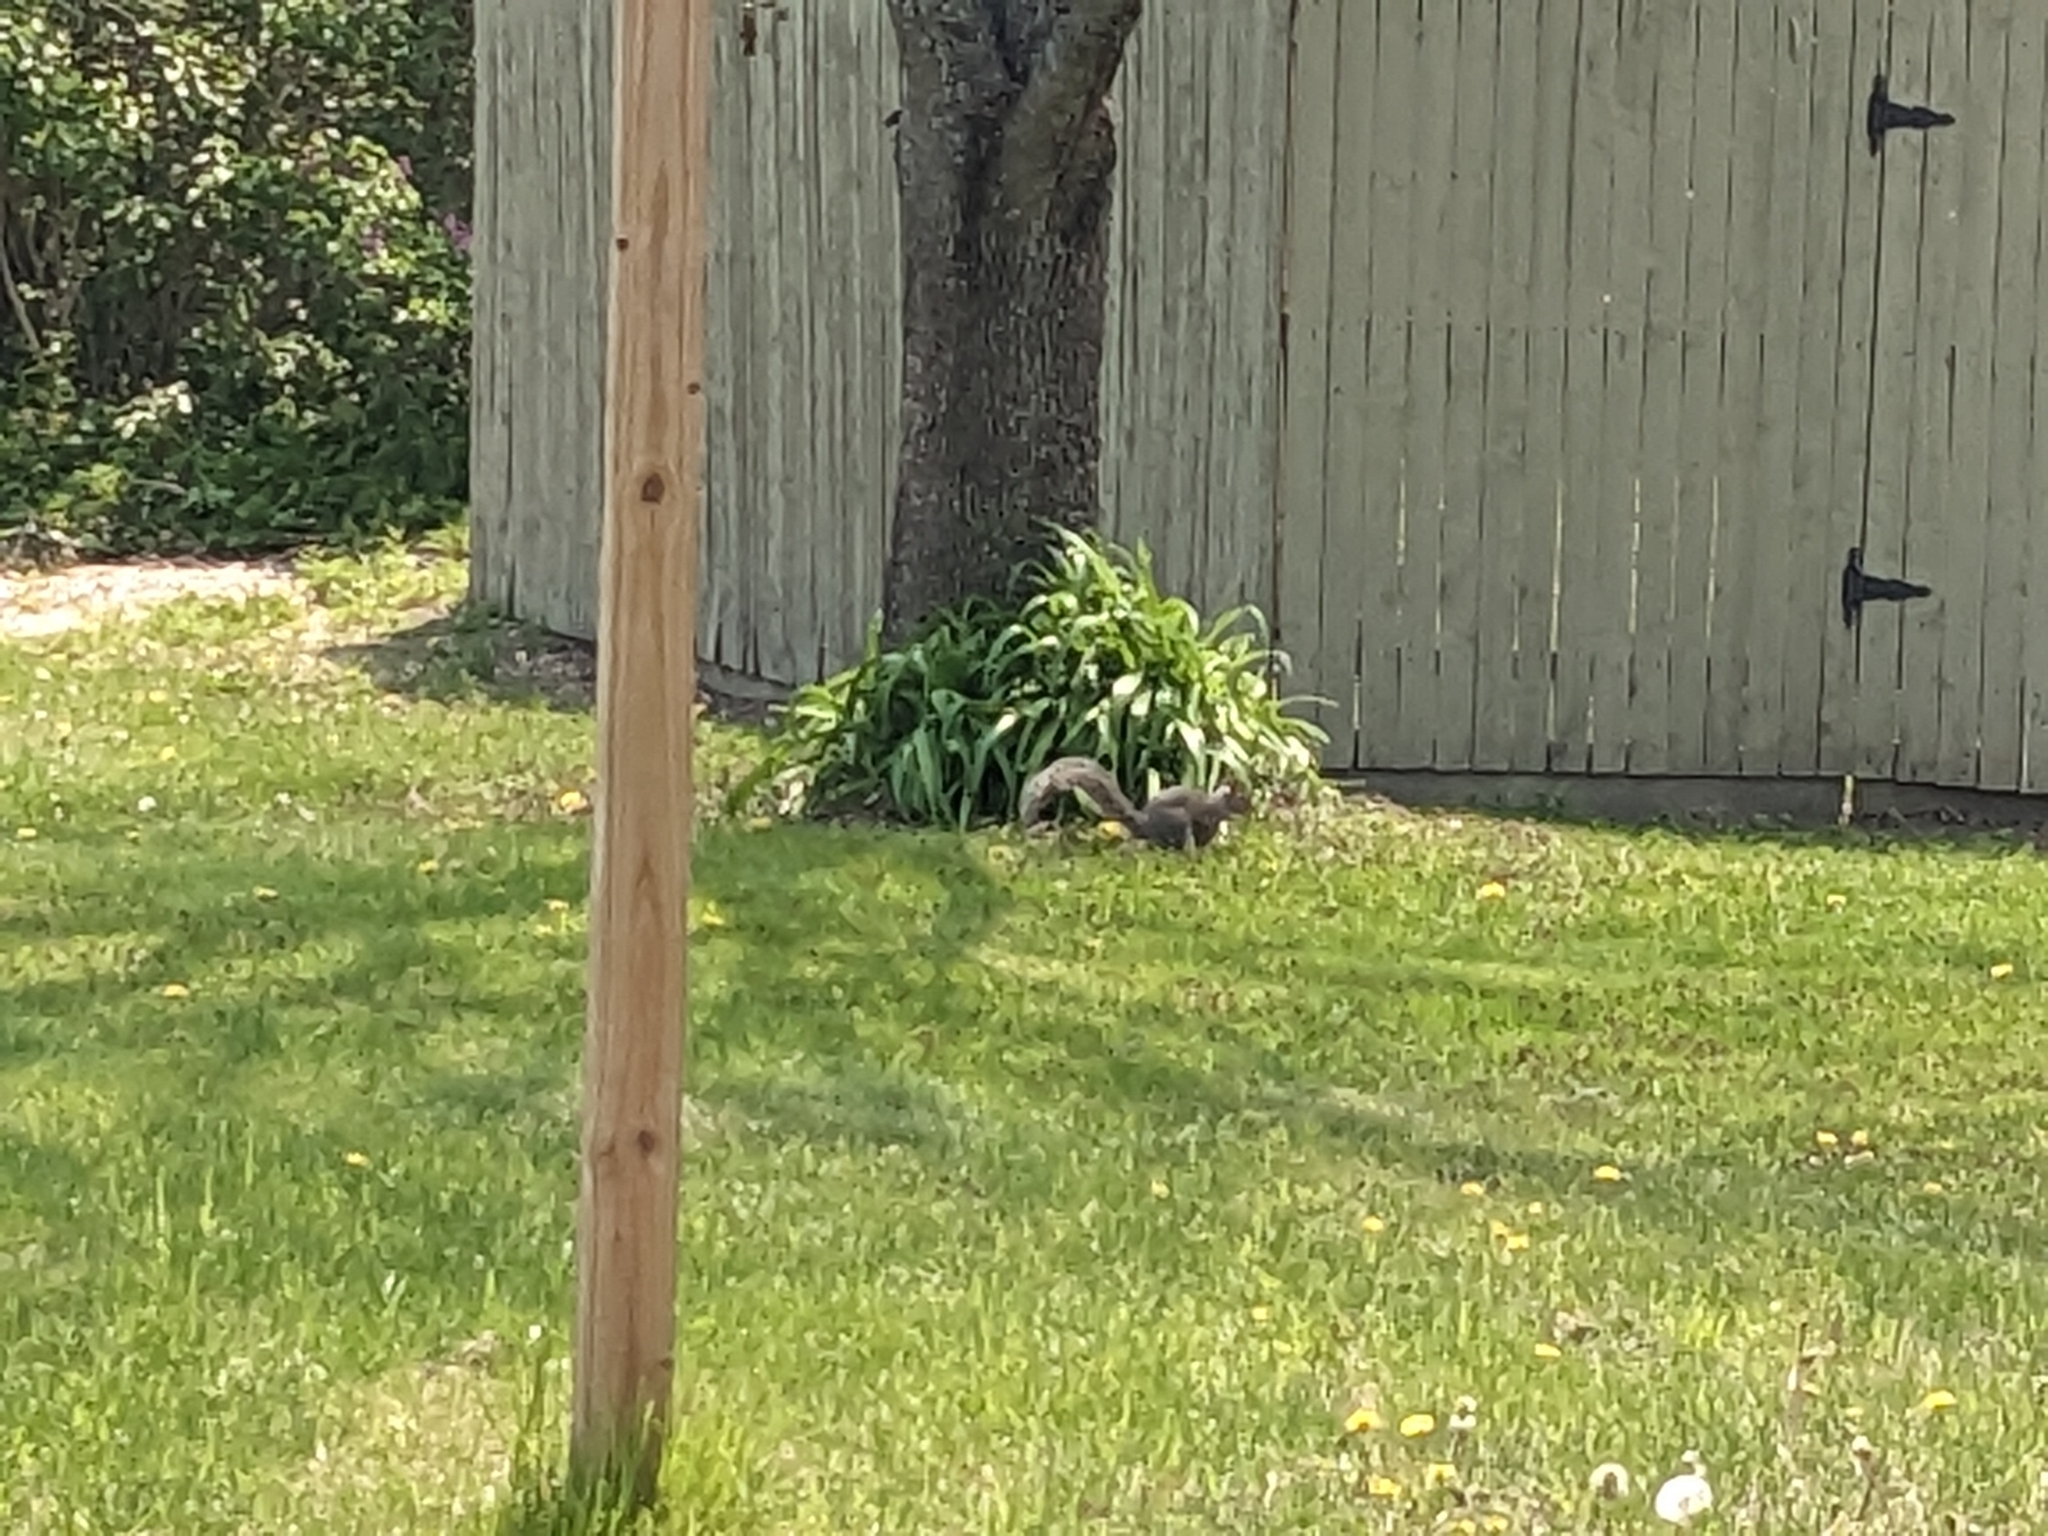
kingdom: Animalia
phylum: Chordata
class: Mammalia
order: Rodentia
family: Sciuridae
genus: Sciurus
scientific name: Sciurus carolinensis
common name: Eastern gray squirrel
